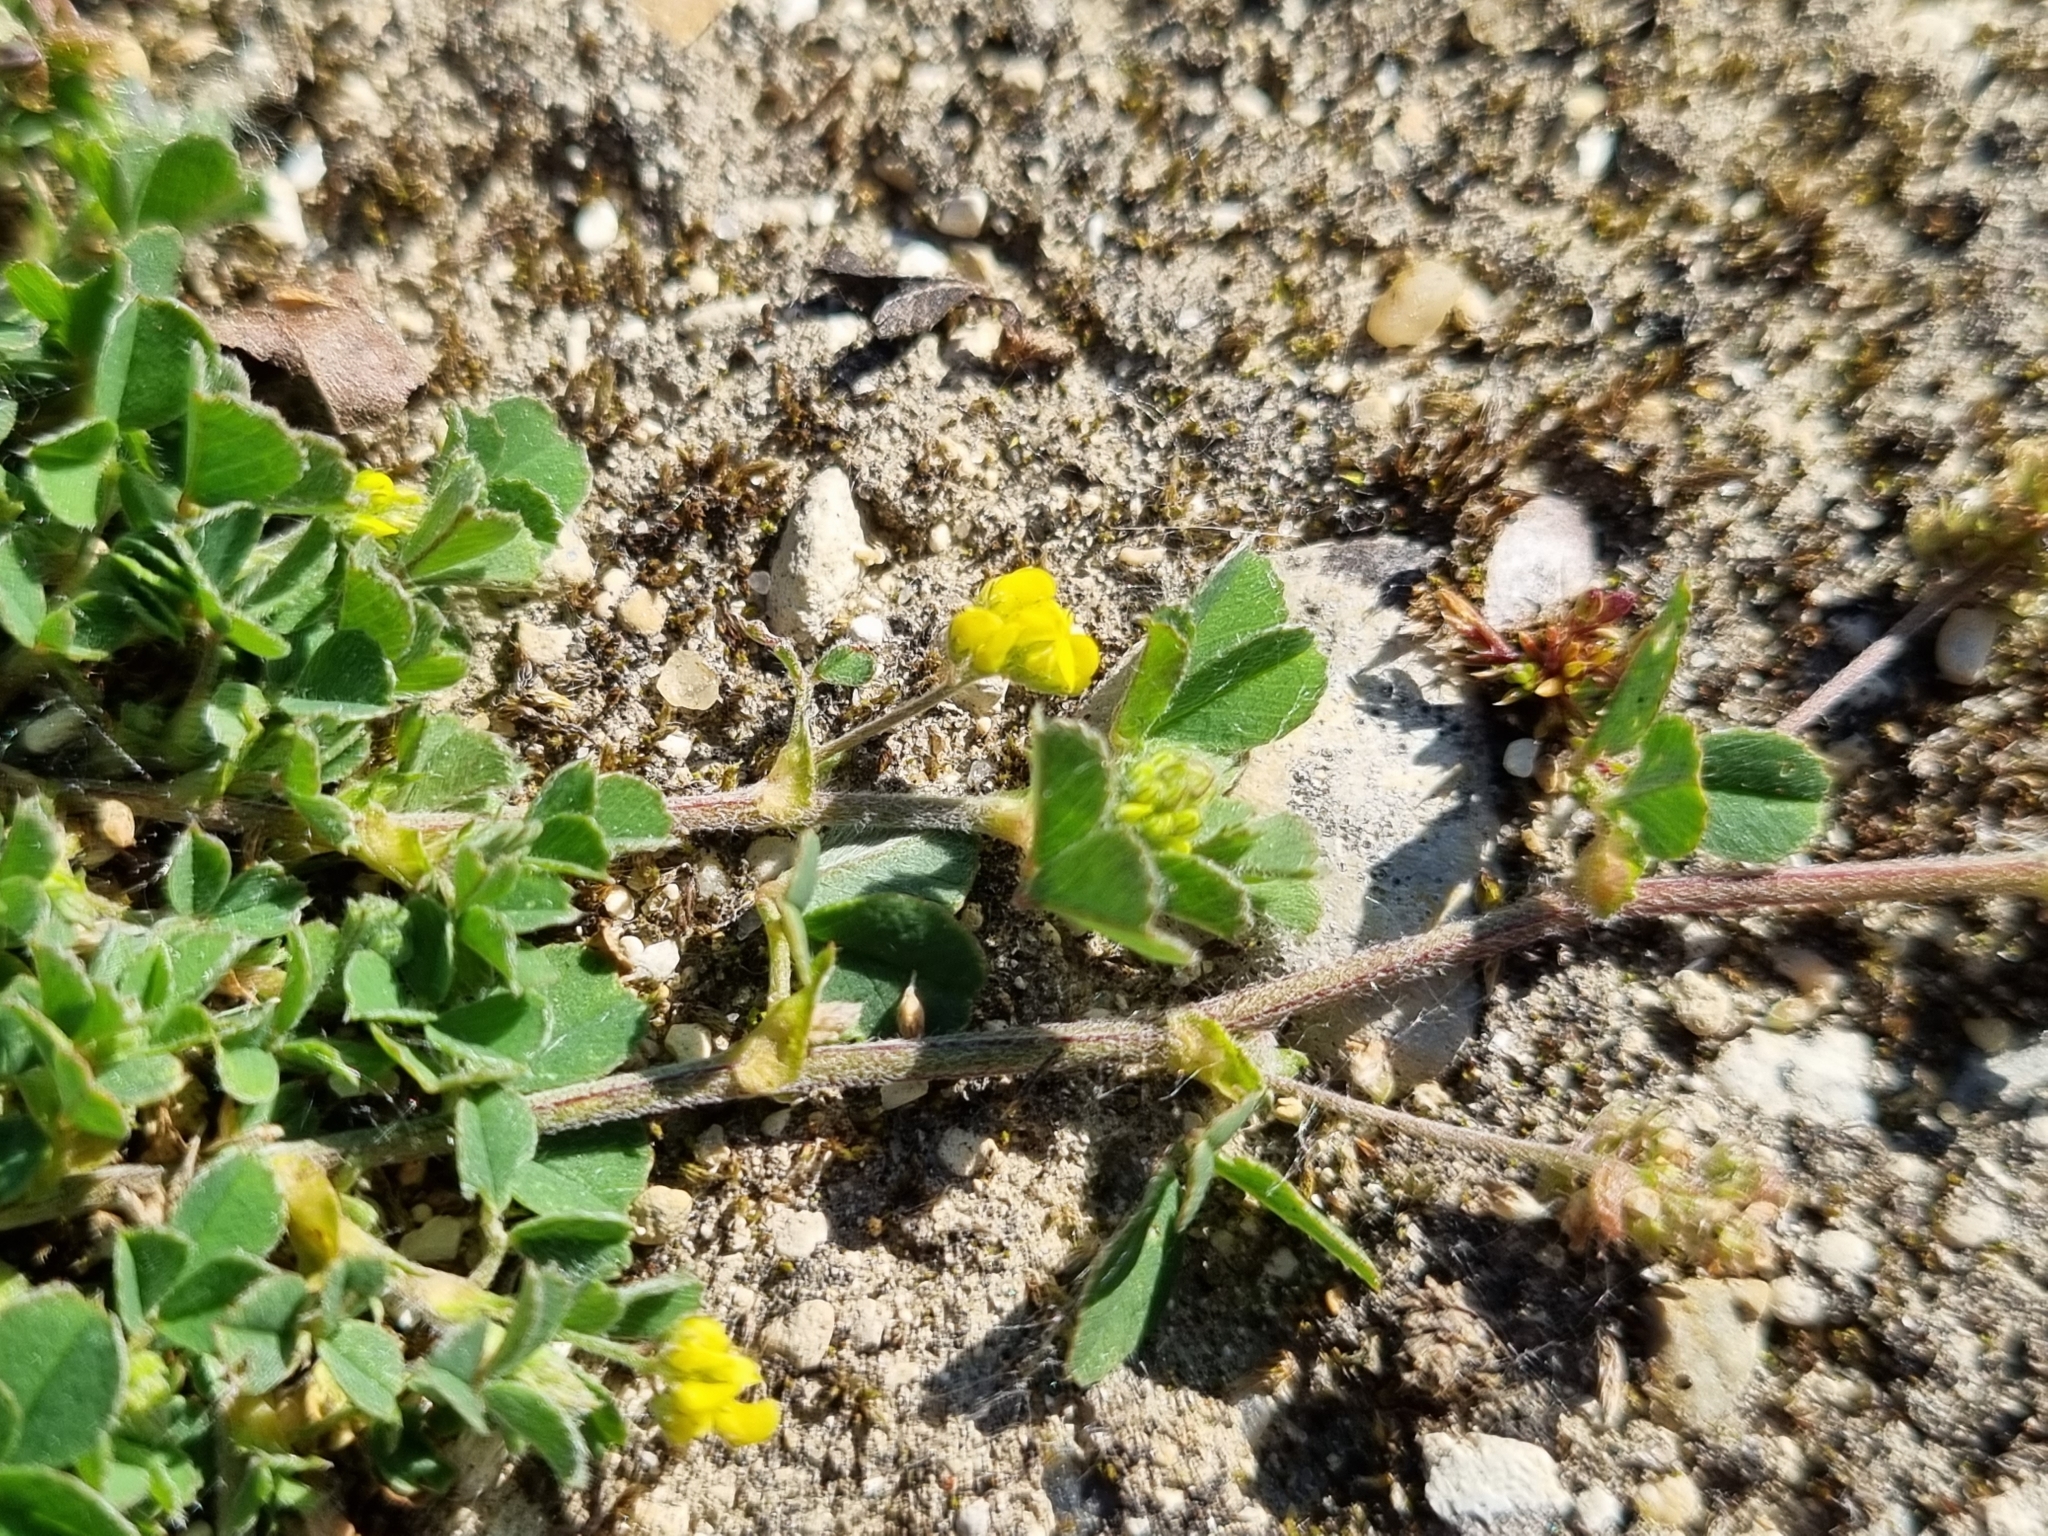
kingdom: Plantae
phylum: Tracheophyta
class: Magnoliopsida
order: Fabales
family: Fabaceae
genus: Medicago
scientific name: Medicago lupulina
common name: Black medick
